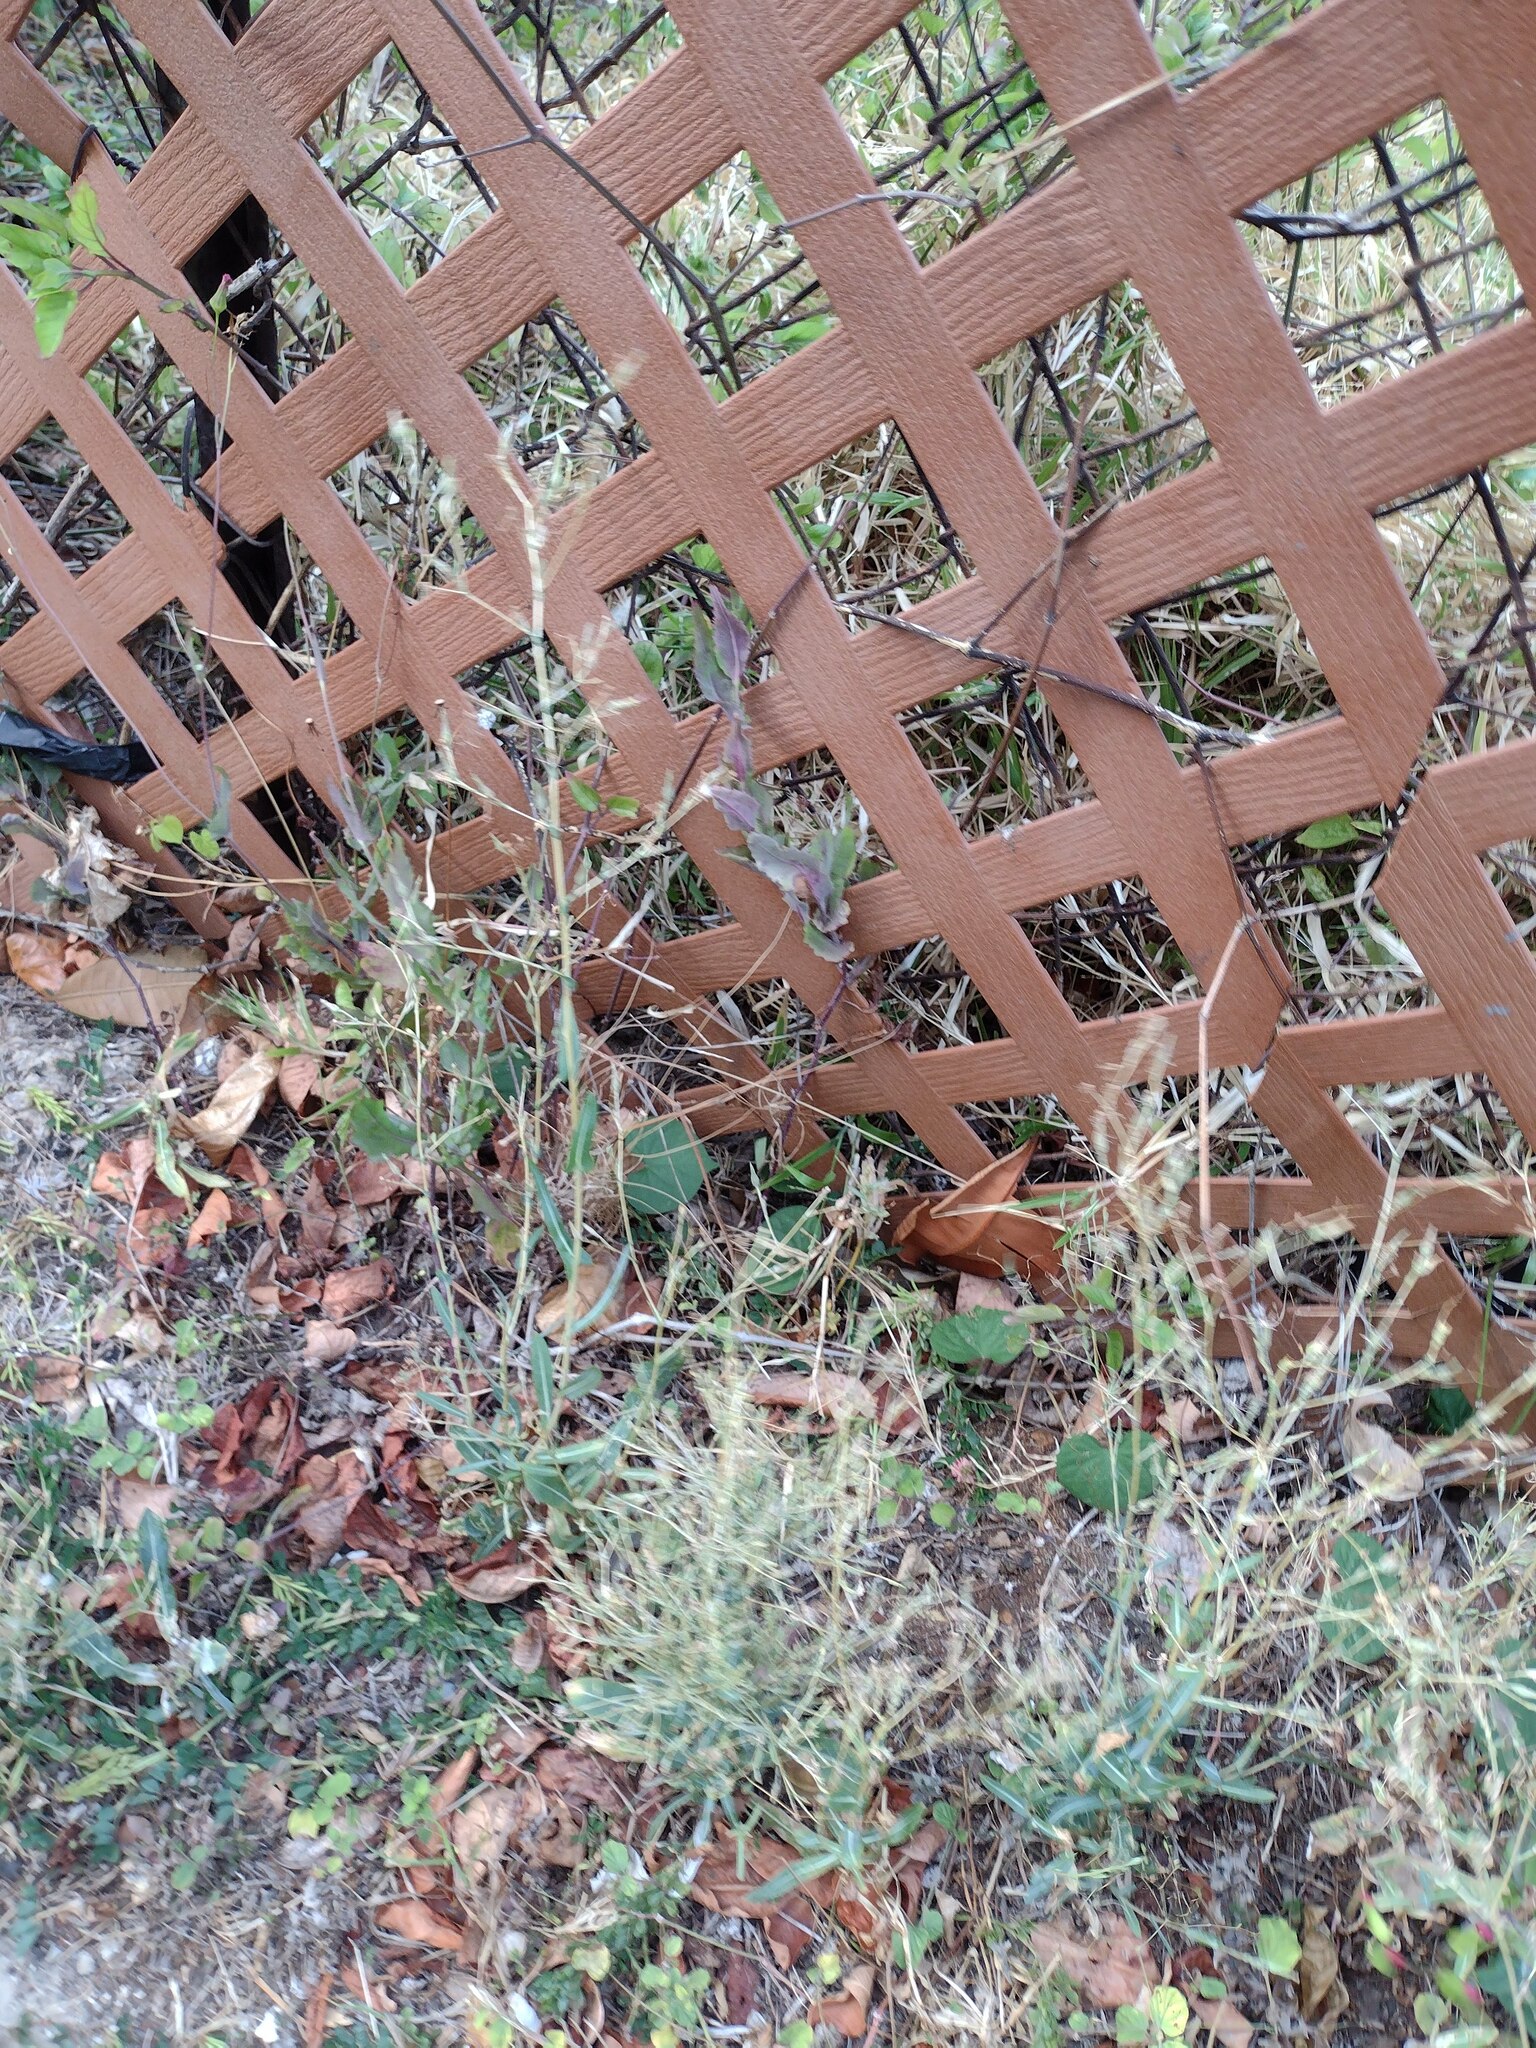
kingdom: Plantae
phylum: Tracheophyta
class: Magnoliopsida
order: Asterales
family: Asteraceae
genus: Lactuca
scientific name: Lactuca serriola
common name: Prickly lettuce
